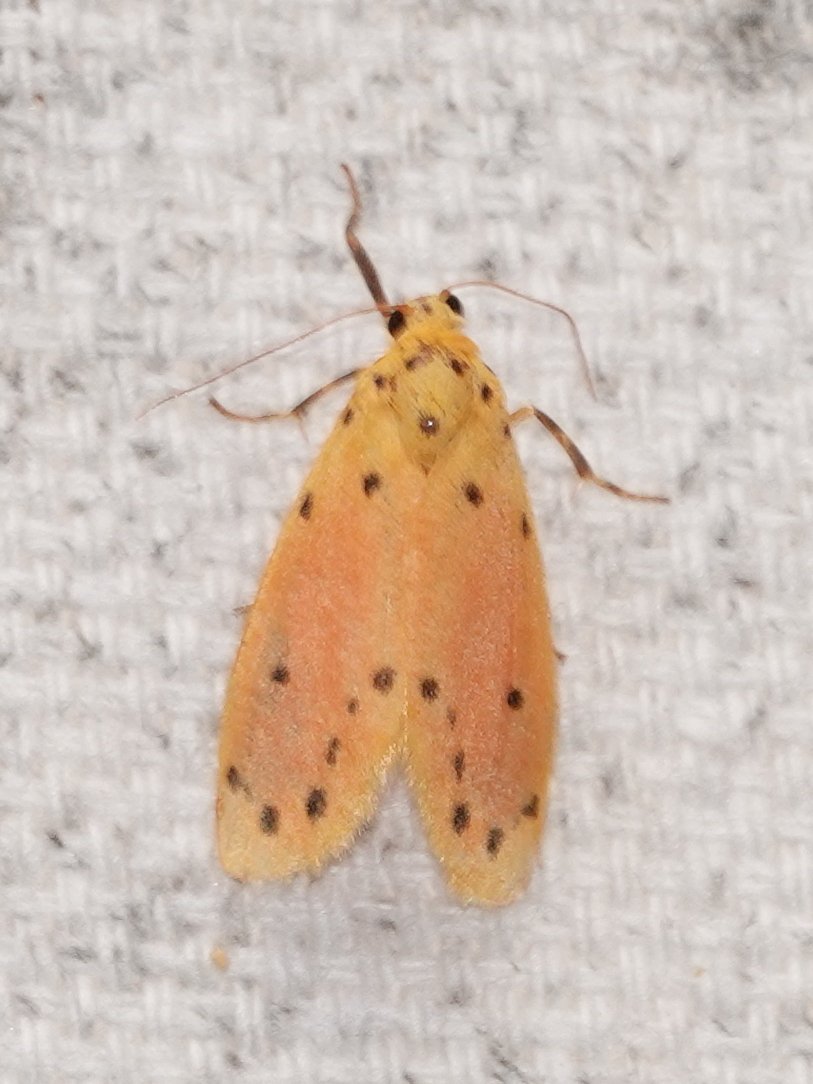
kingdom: Animalia
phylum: Arthropoda
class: Insecta
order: Lepidoptera
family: Erebidae
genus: Miltochrista
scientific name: Miltochrista discisigna
